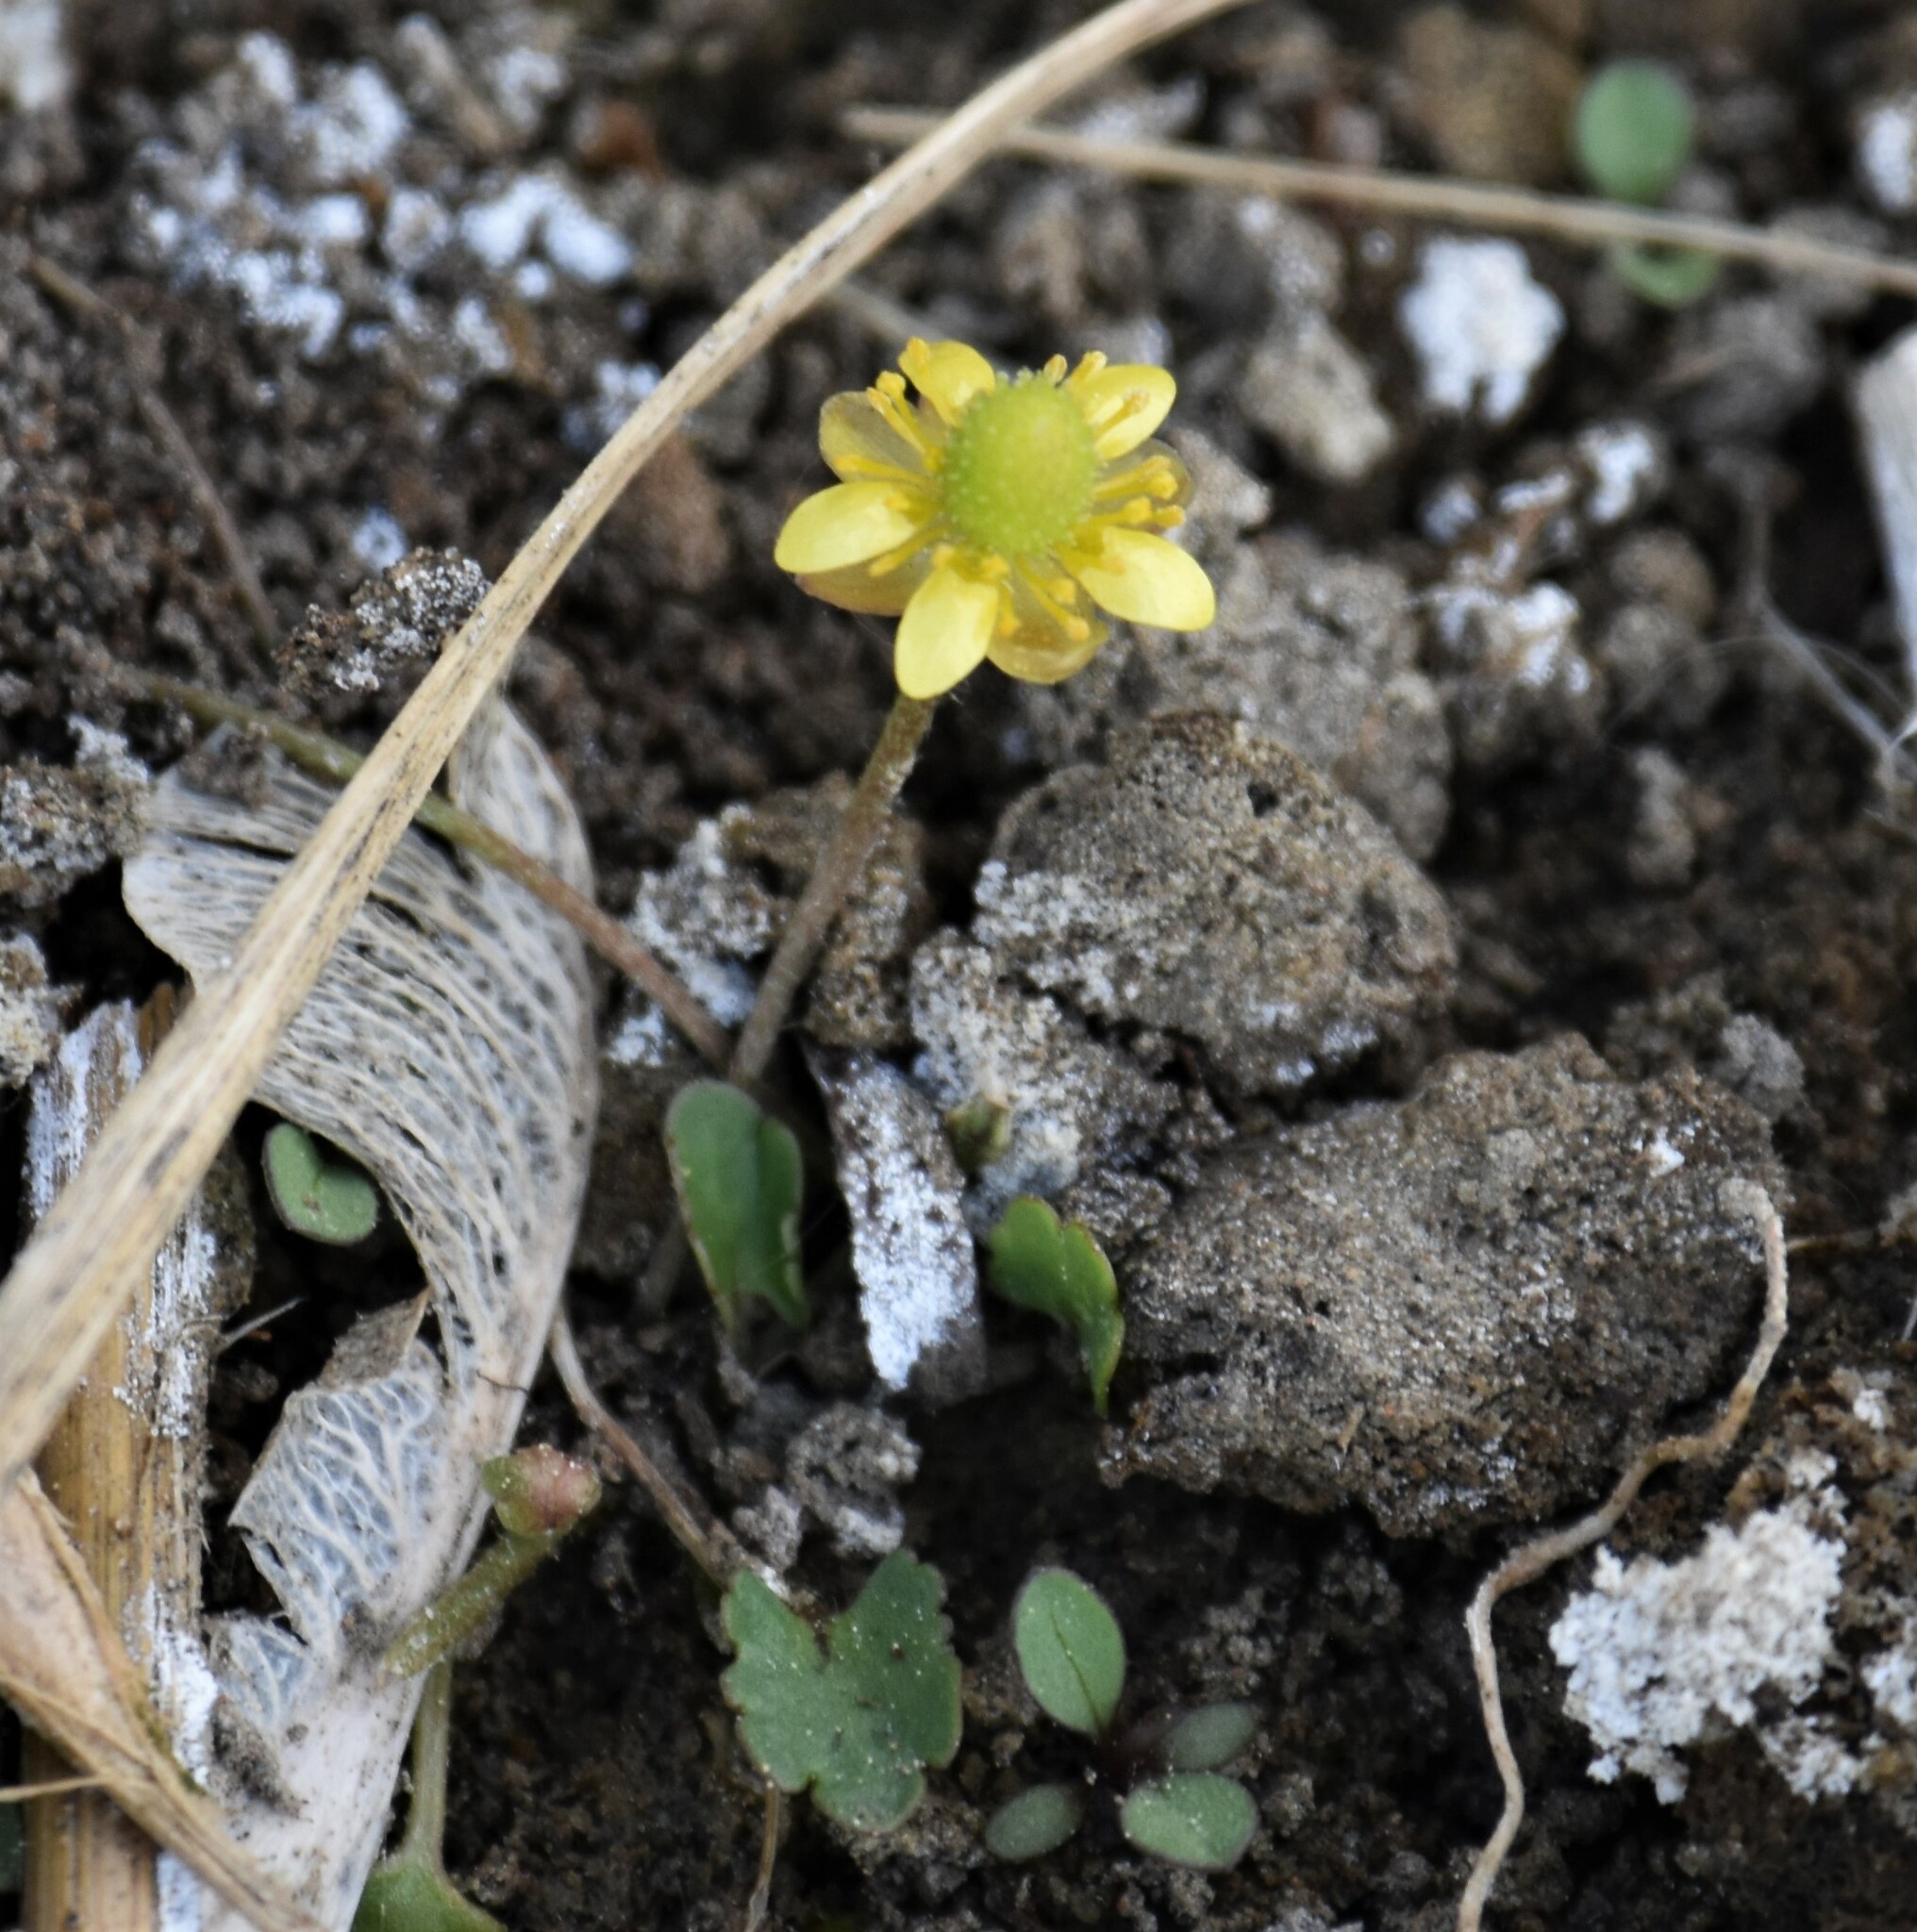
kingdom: Plantae
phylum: Tracheophyta
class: Magnoliopsida
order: Ranunculales
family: Ranunculaceae
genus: Halerpestes
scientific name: Halerpestes cymbalaria
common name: Seaside crowfoot
